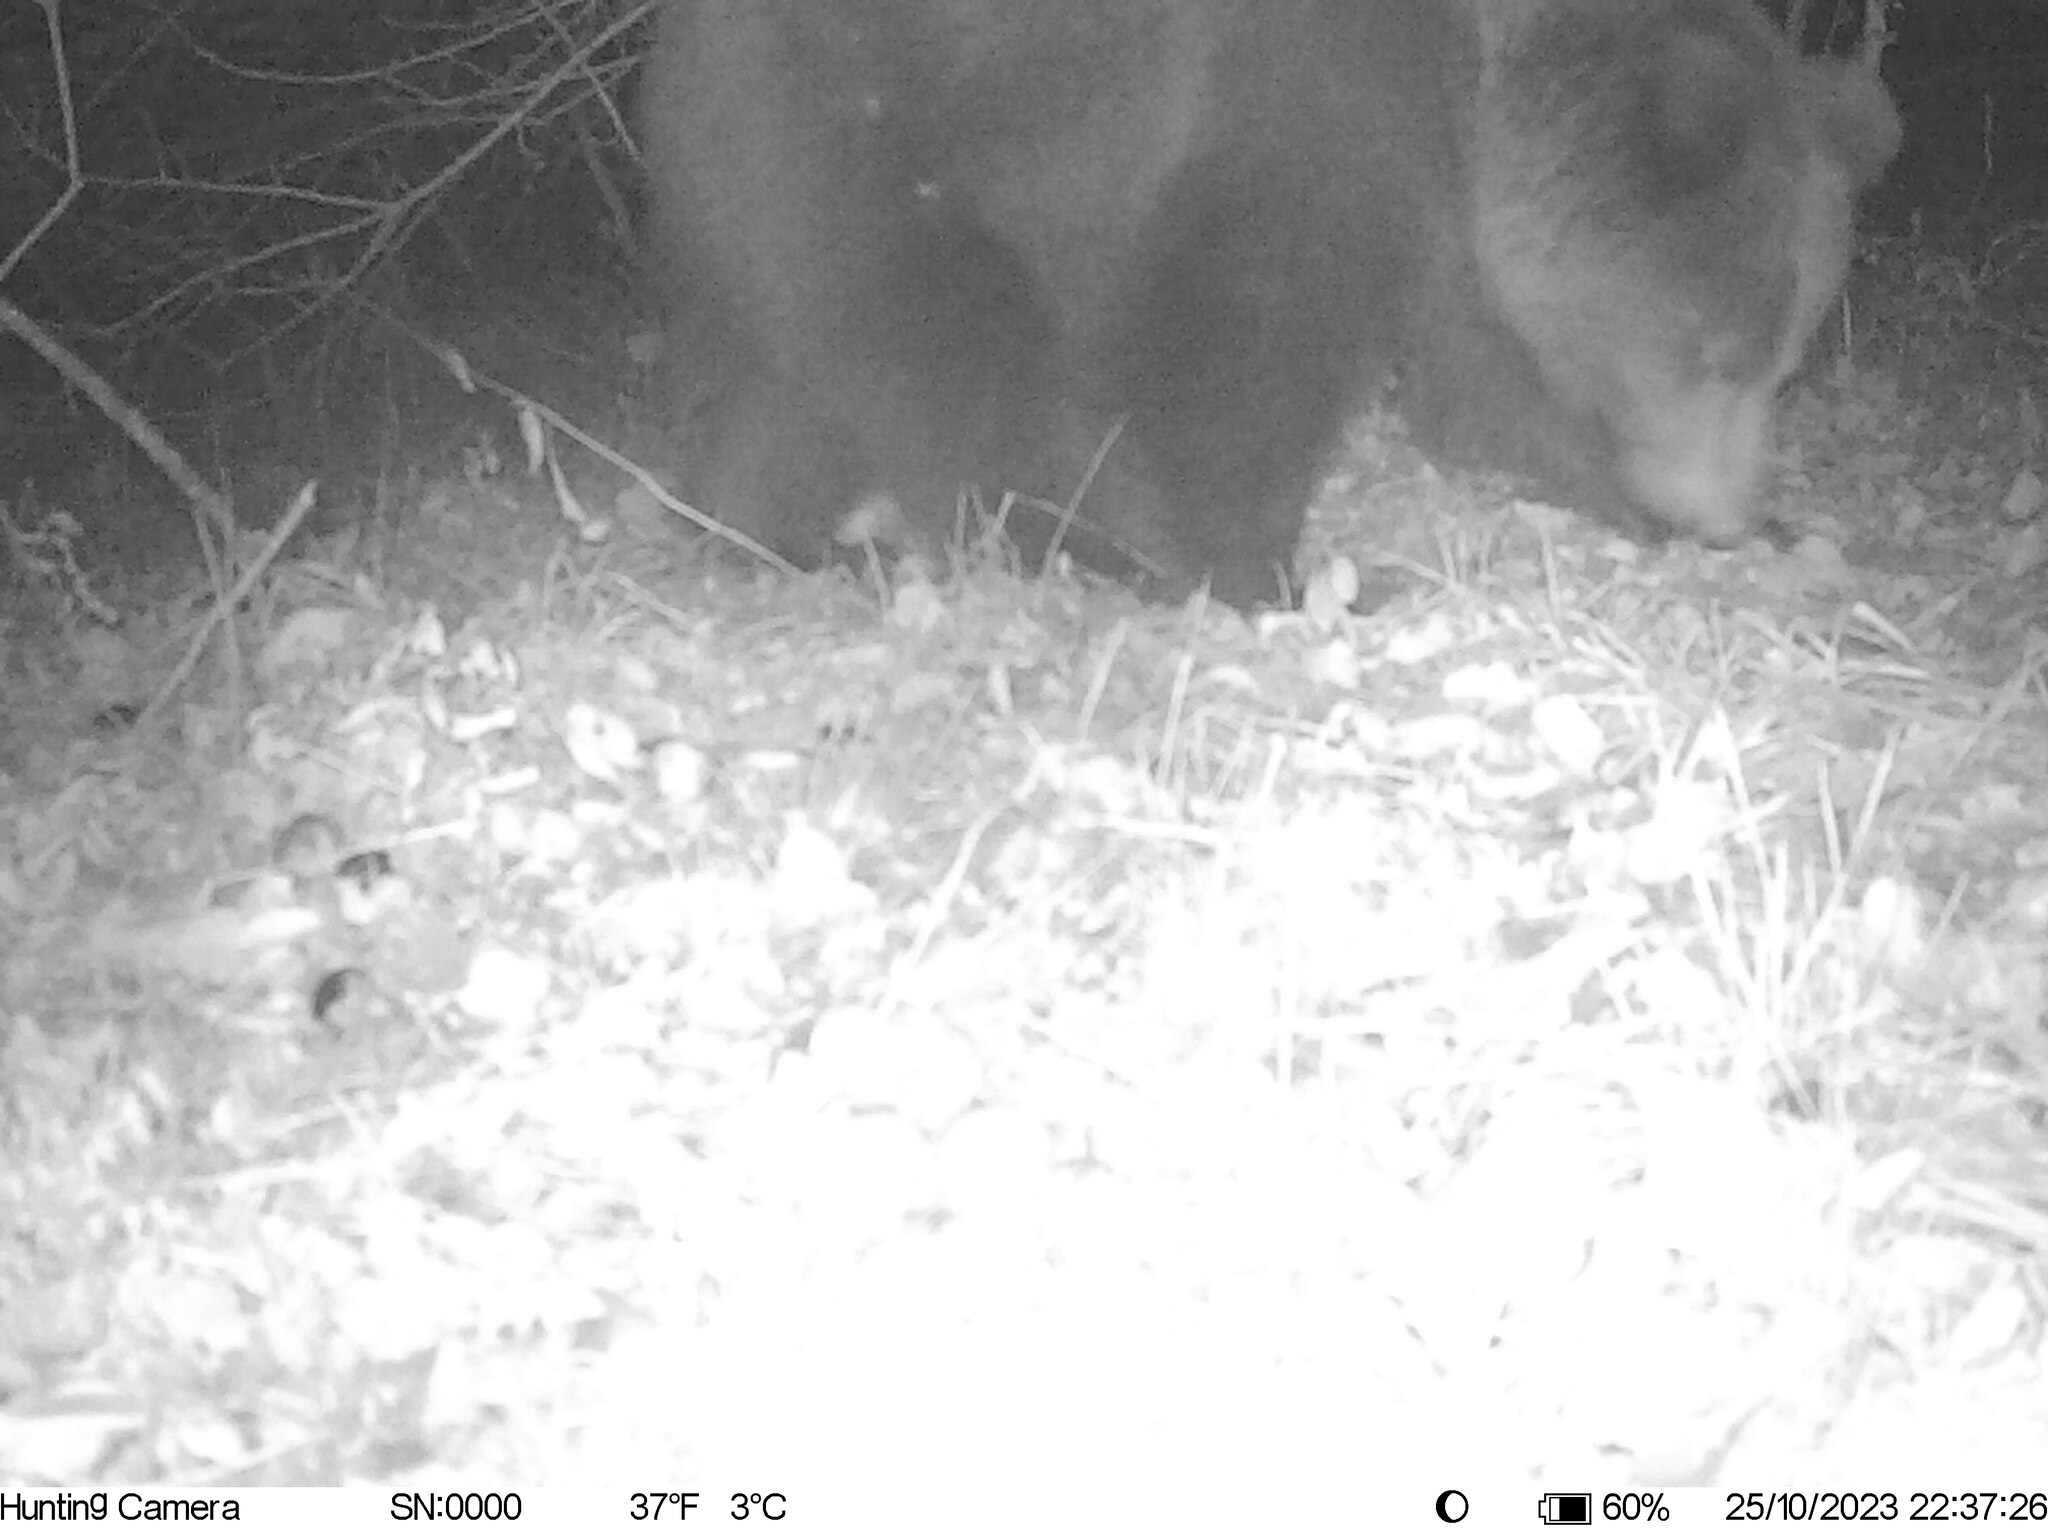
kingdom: Animalia
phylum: Chordata
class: Mammalia
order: Carnivora
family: Ursidae
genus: Ursus
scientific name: Ursus arctos
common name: Brown bear
